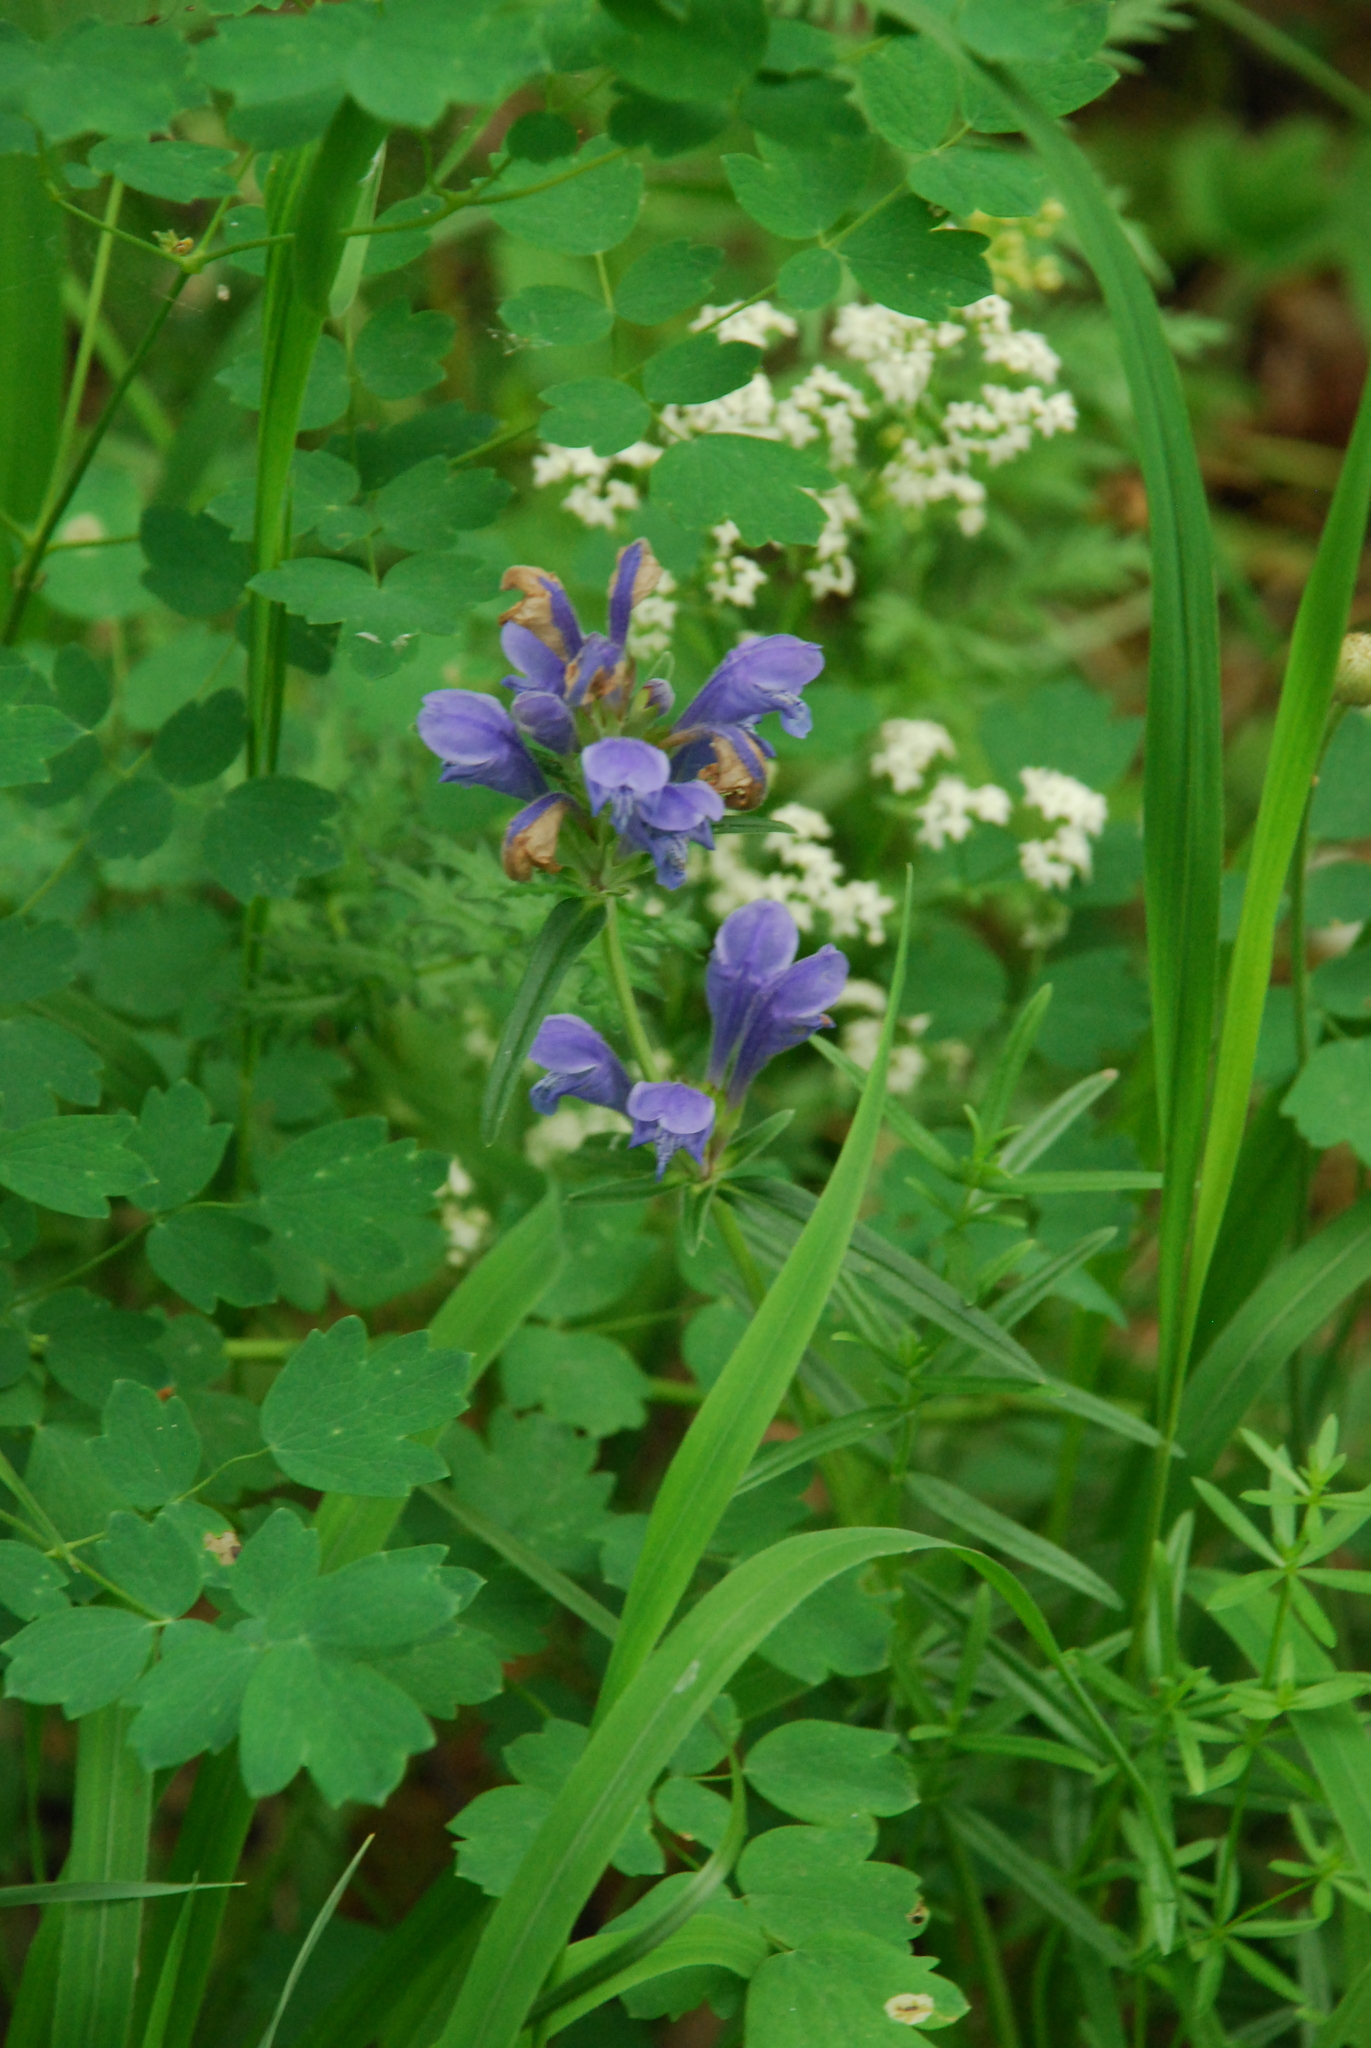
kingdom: Plantae
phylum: Tracheophyta
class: Magnoliopsida
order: Lamiales
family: Lamiaceae
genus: Dracocephalum
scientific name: Dracocephalum ruyschiana
